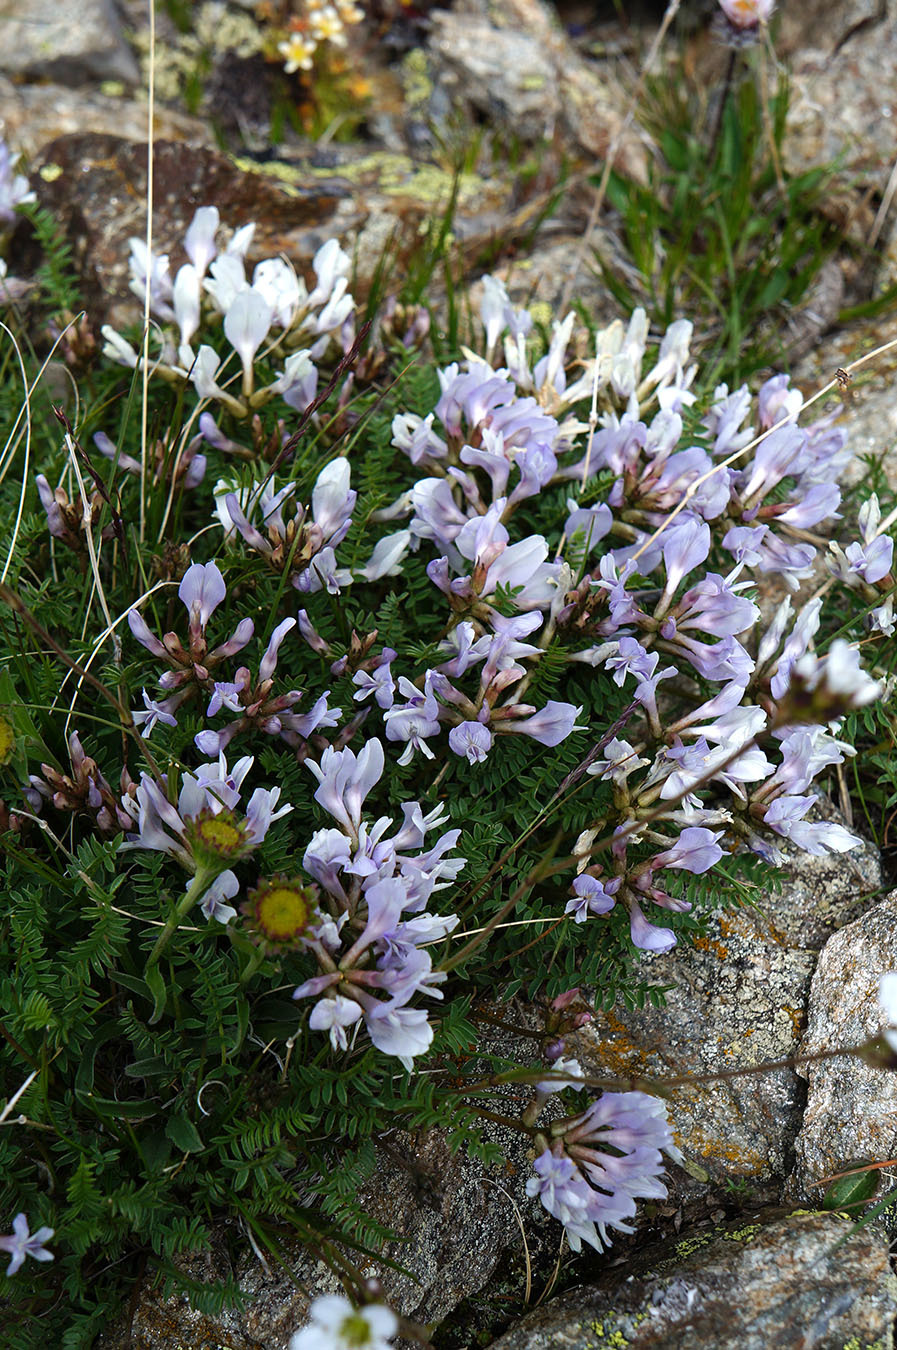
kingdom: Plantae
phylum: Tracheophyta
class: Magnoliopsida
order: Fabales
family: Fabaceae
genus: Astragalus
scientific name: Astragalus levieri
